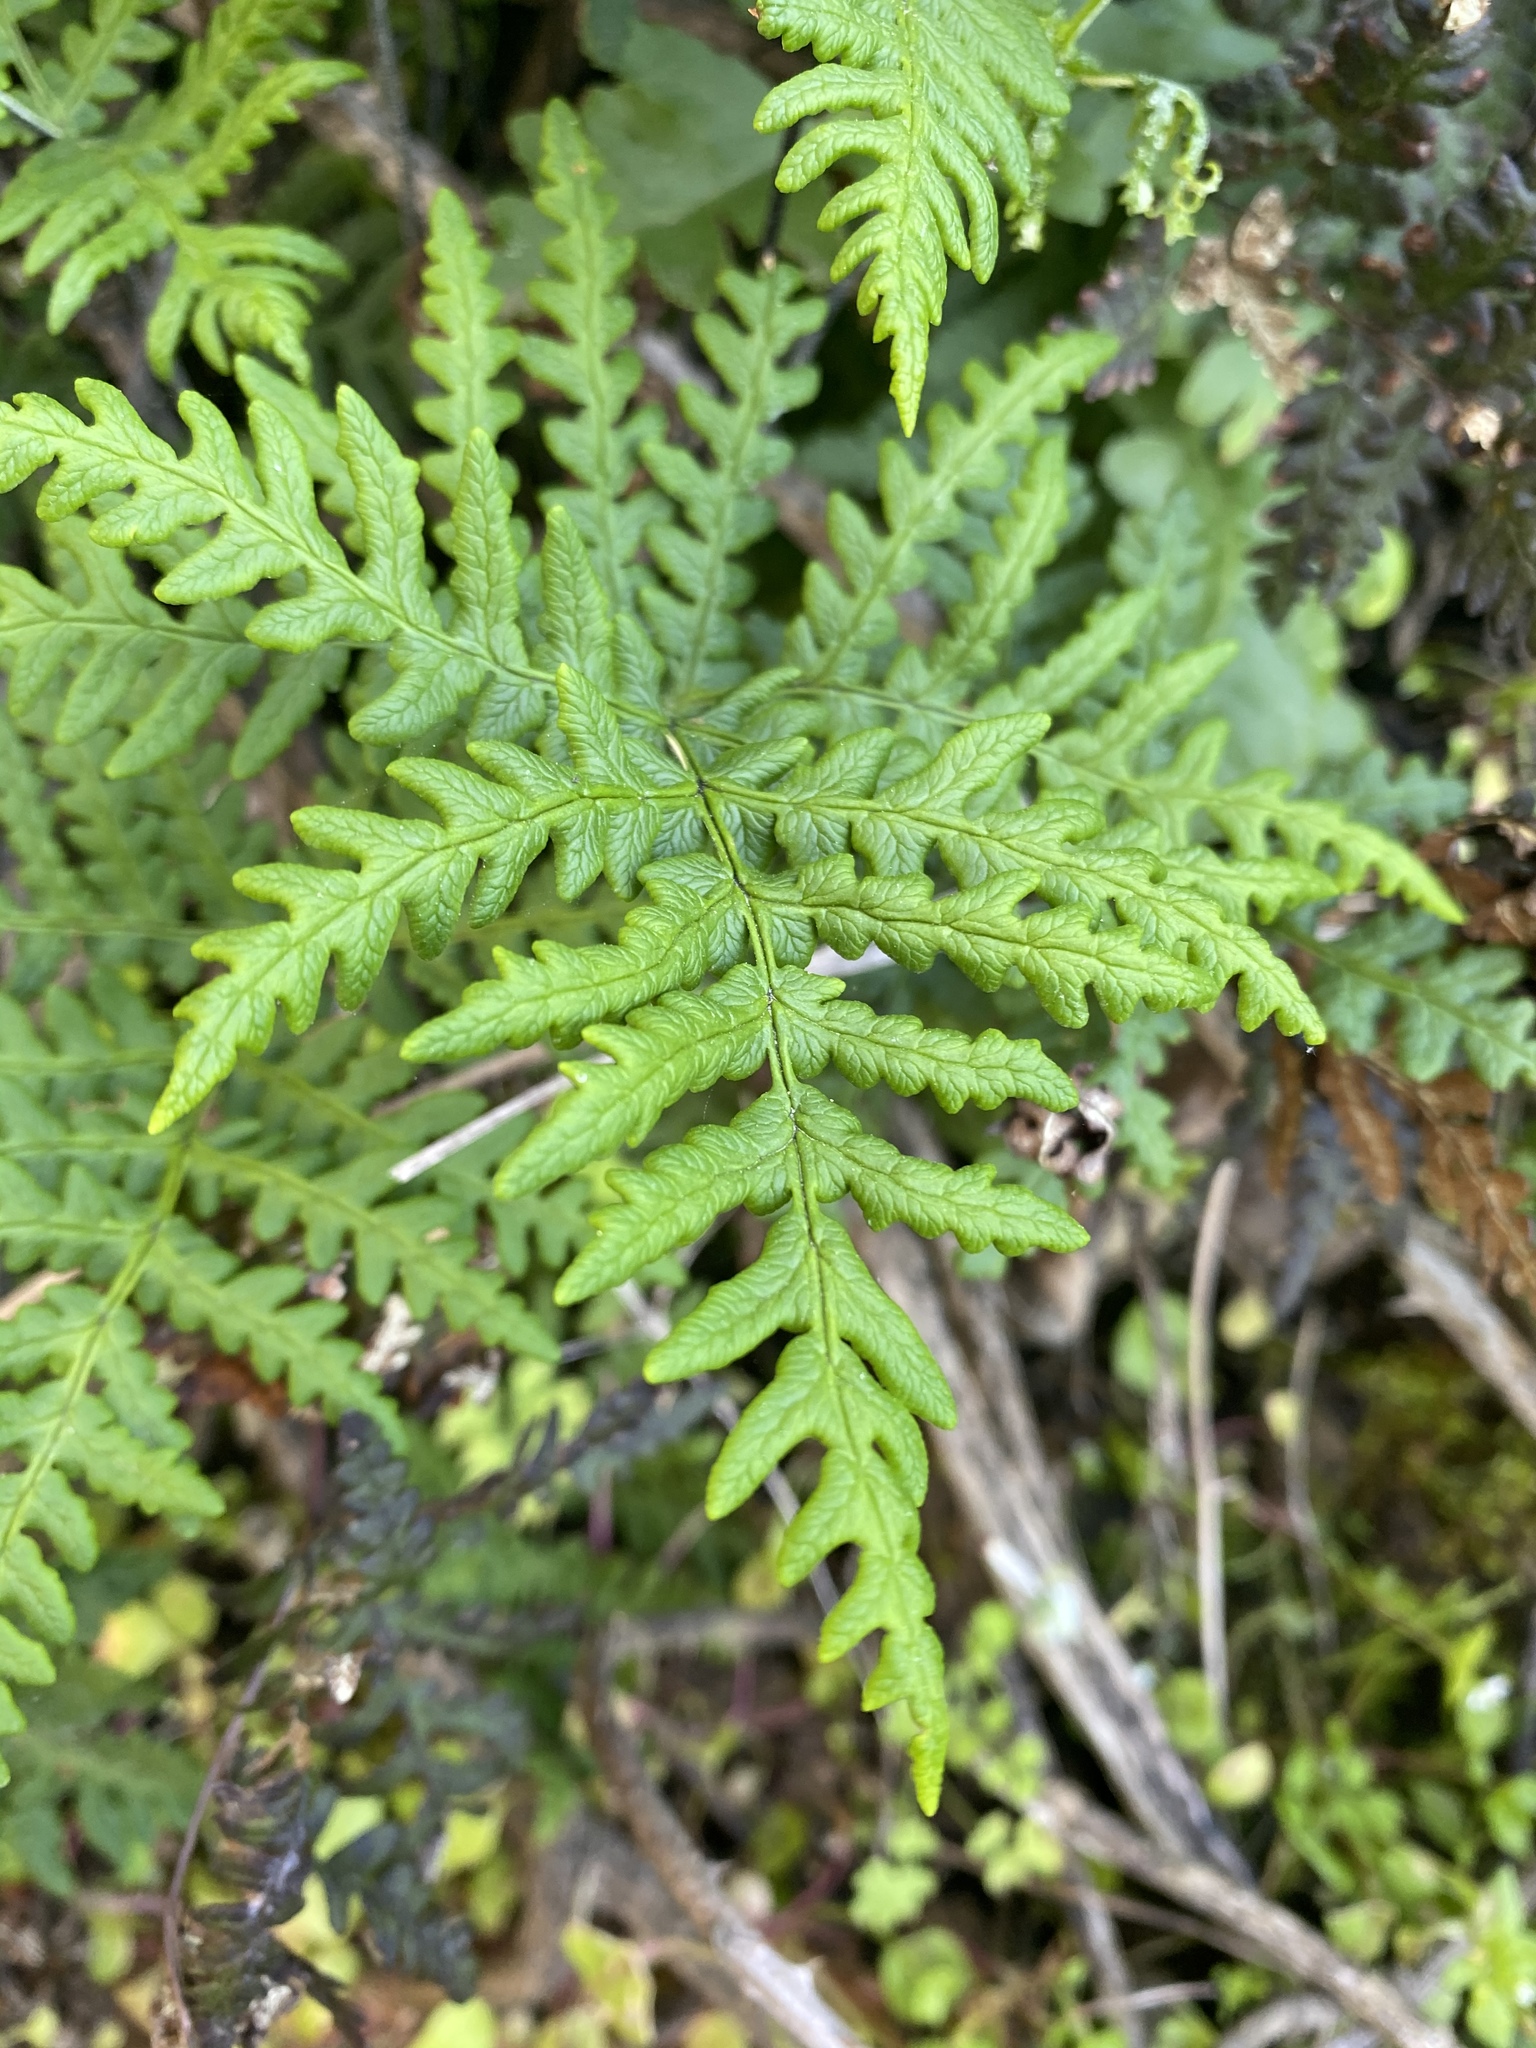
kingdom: Plantae
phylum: Tracheophyta
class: Polypodiopsida
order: Polypodiales
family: Pteridaceae
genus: Pentagramma
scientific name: Pentagramma triangularis
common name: Gold fern
